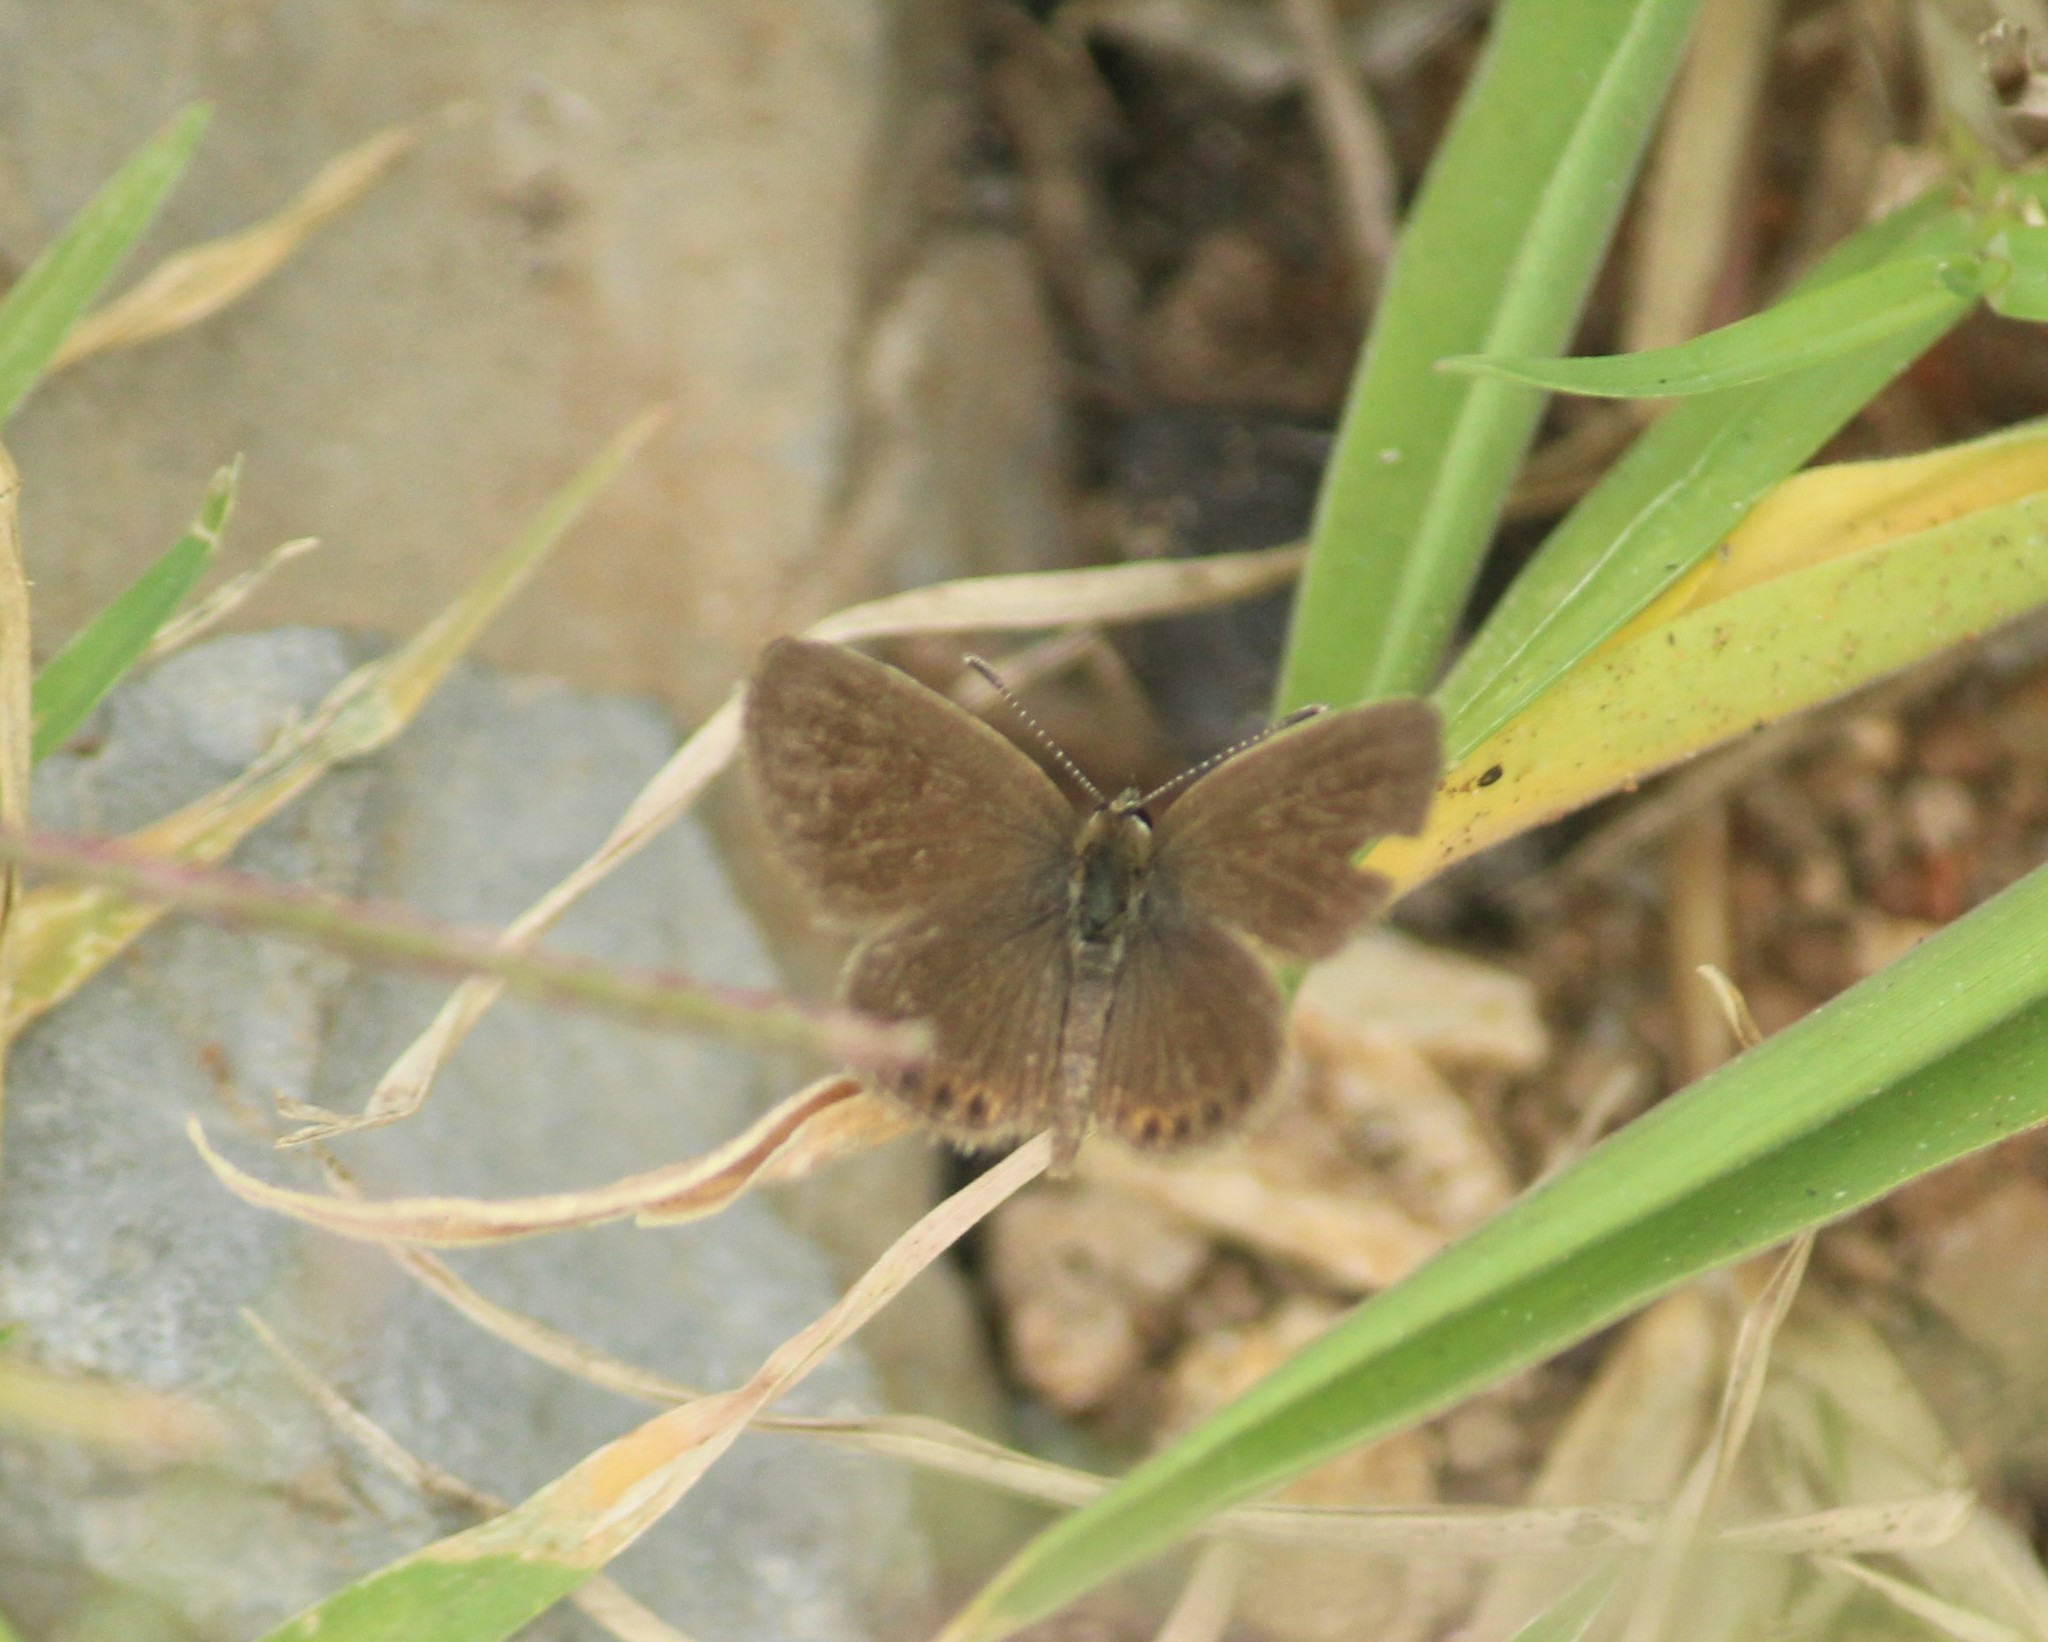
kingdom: Animalia
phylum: Arthropoda
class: Insecta
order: Lepidoptera
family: Lycaenidae
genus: Freyeria
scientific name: Freyeria putli
